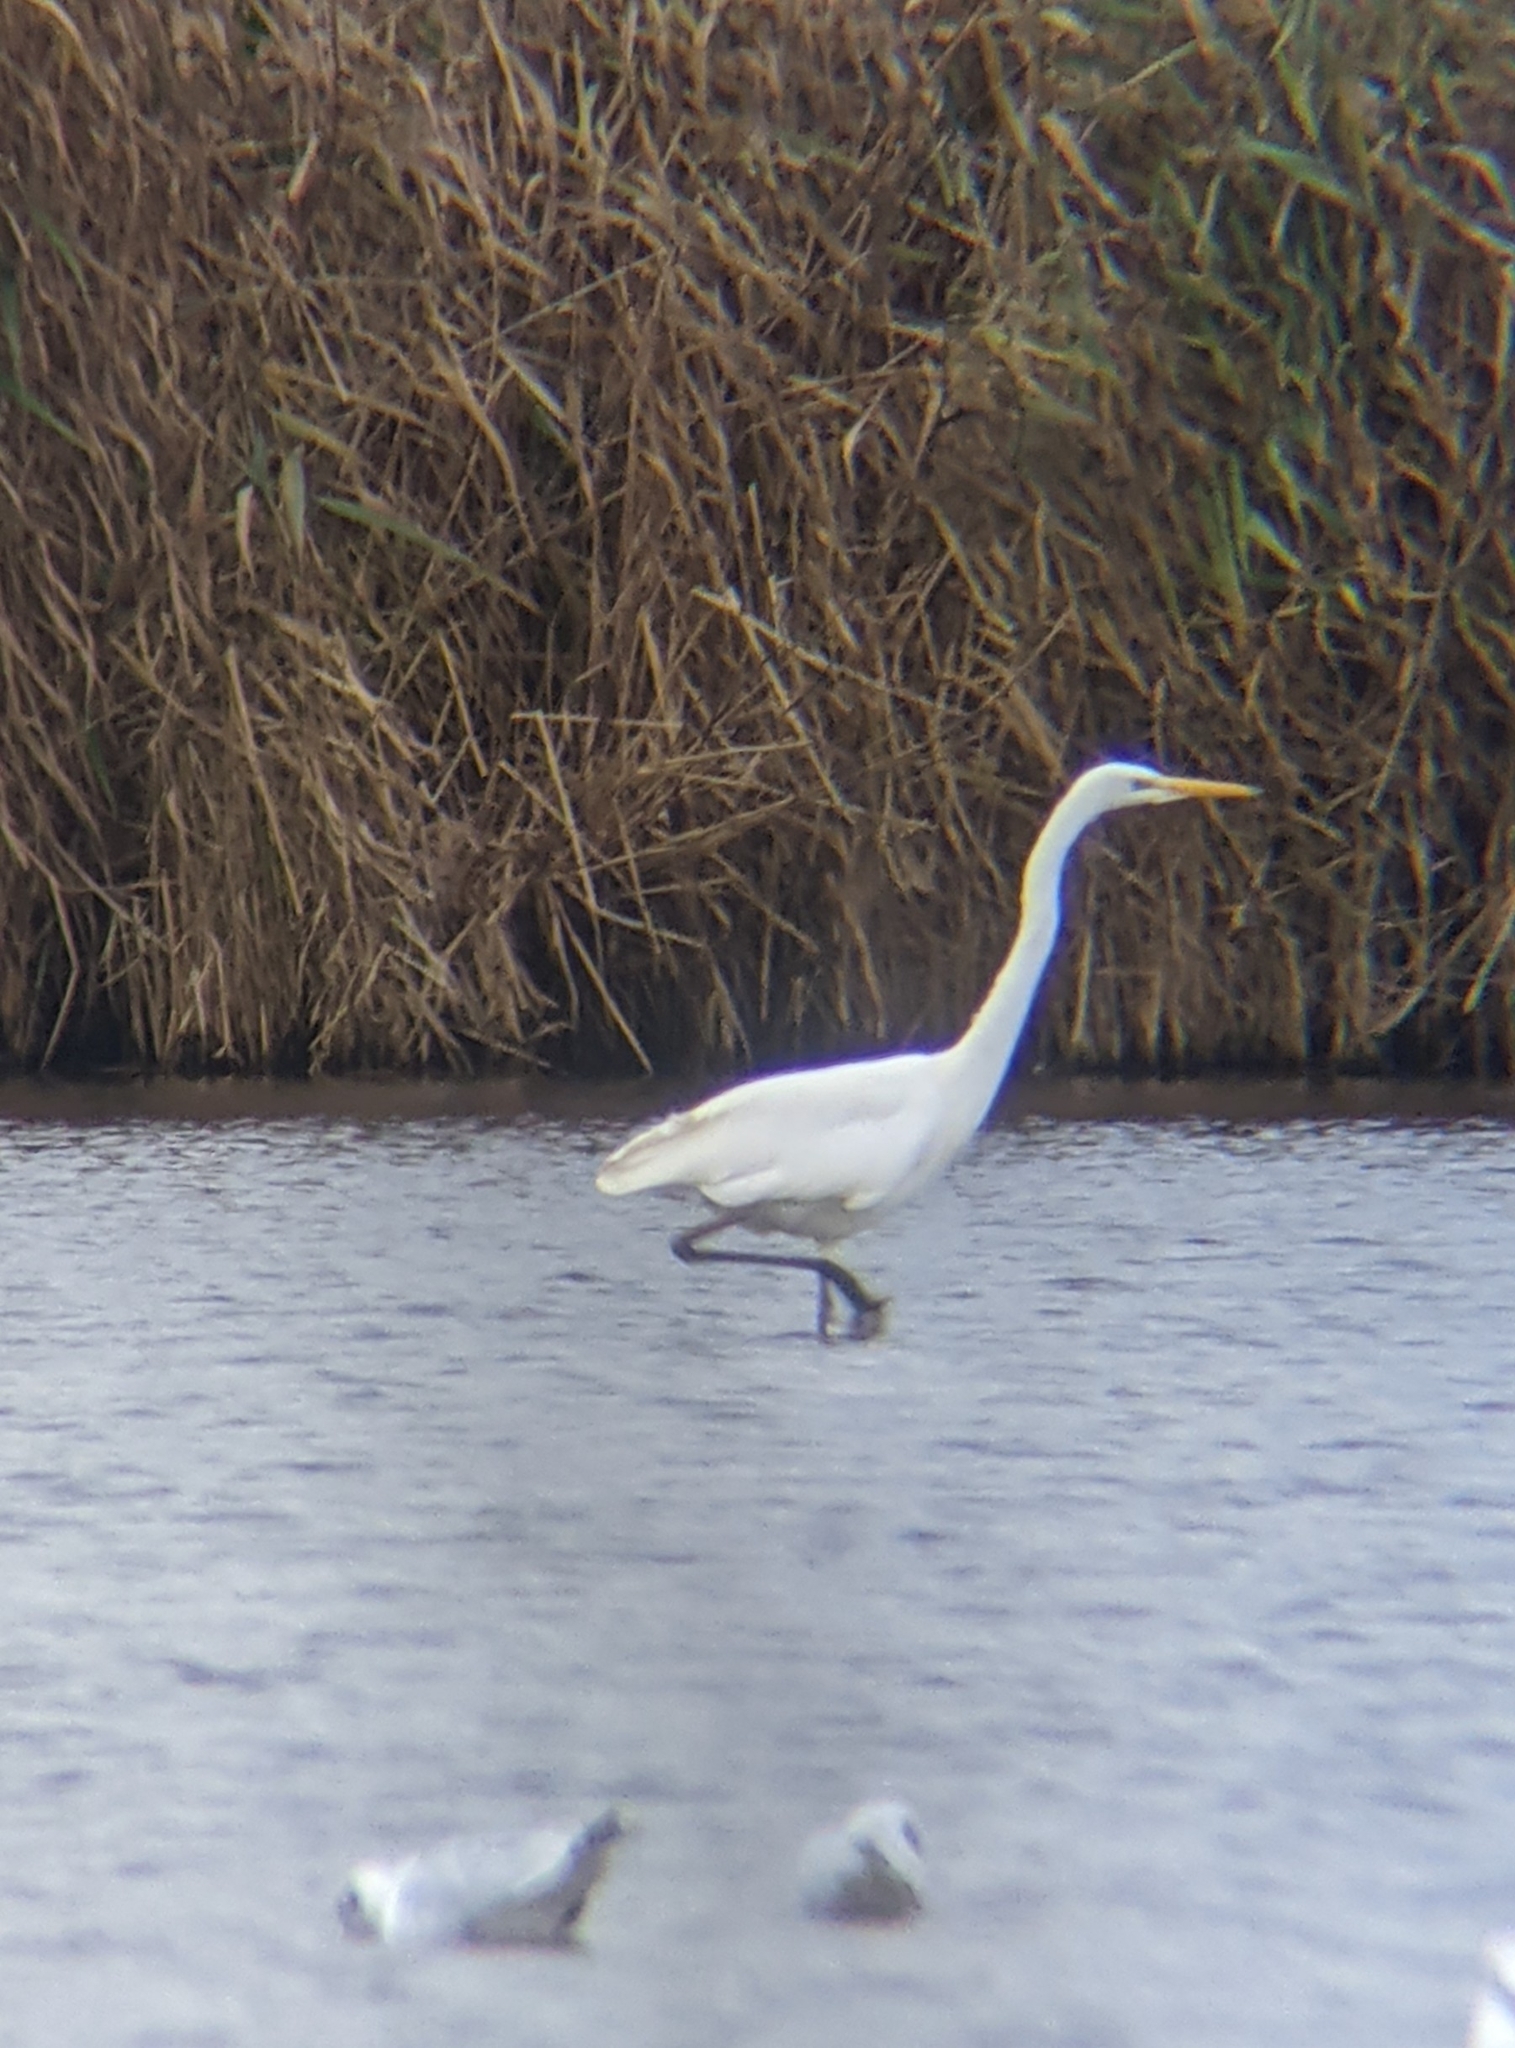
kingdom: Animalia
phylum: Chordata
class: Aves
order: Pelecaniformes
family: Ardeidae
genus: Ardea
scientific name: Ardea alba
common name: Great egret
